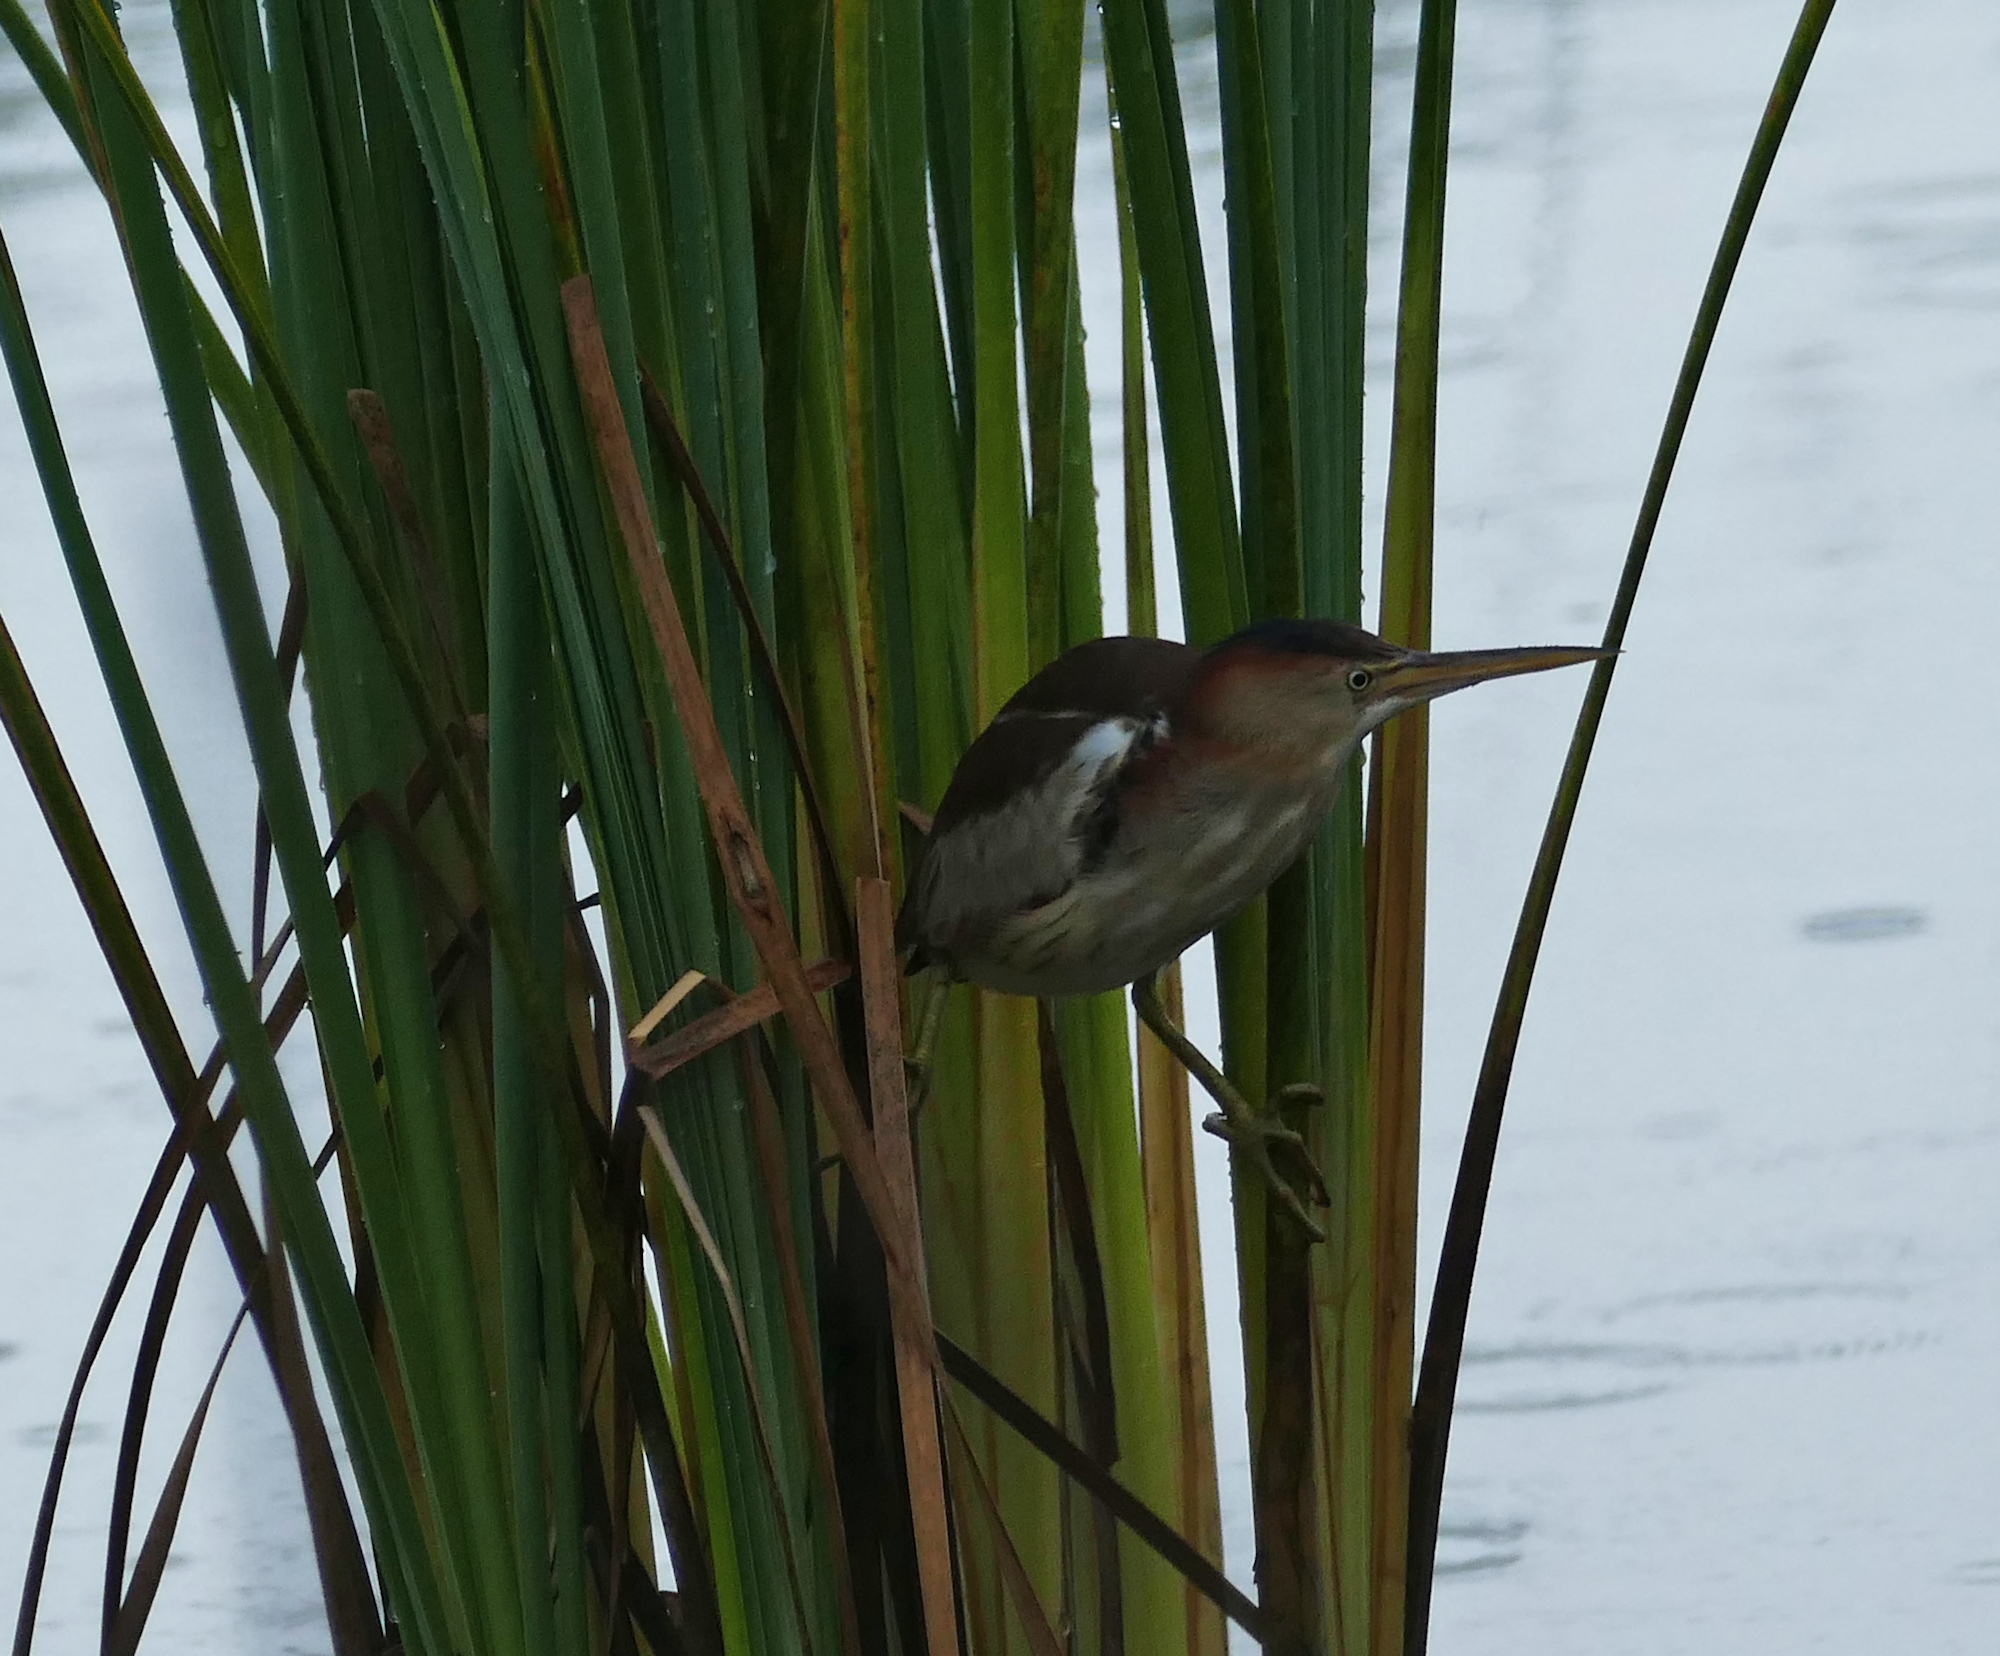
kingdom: Animalia
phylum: Chordata
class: Aves
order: Pelecaniformes
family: Ardeidae
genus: Ixobrychus
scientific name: Ixobrychus exilis
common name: Least bittern
